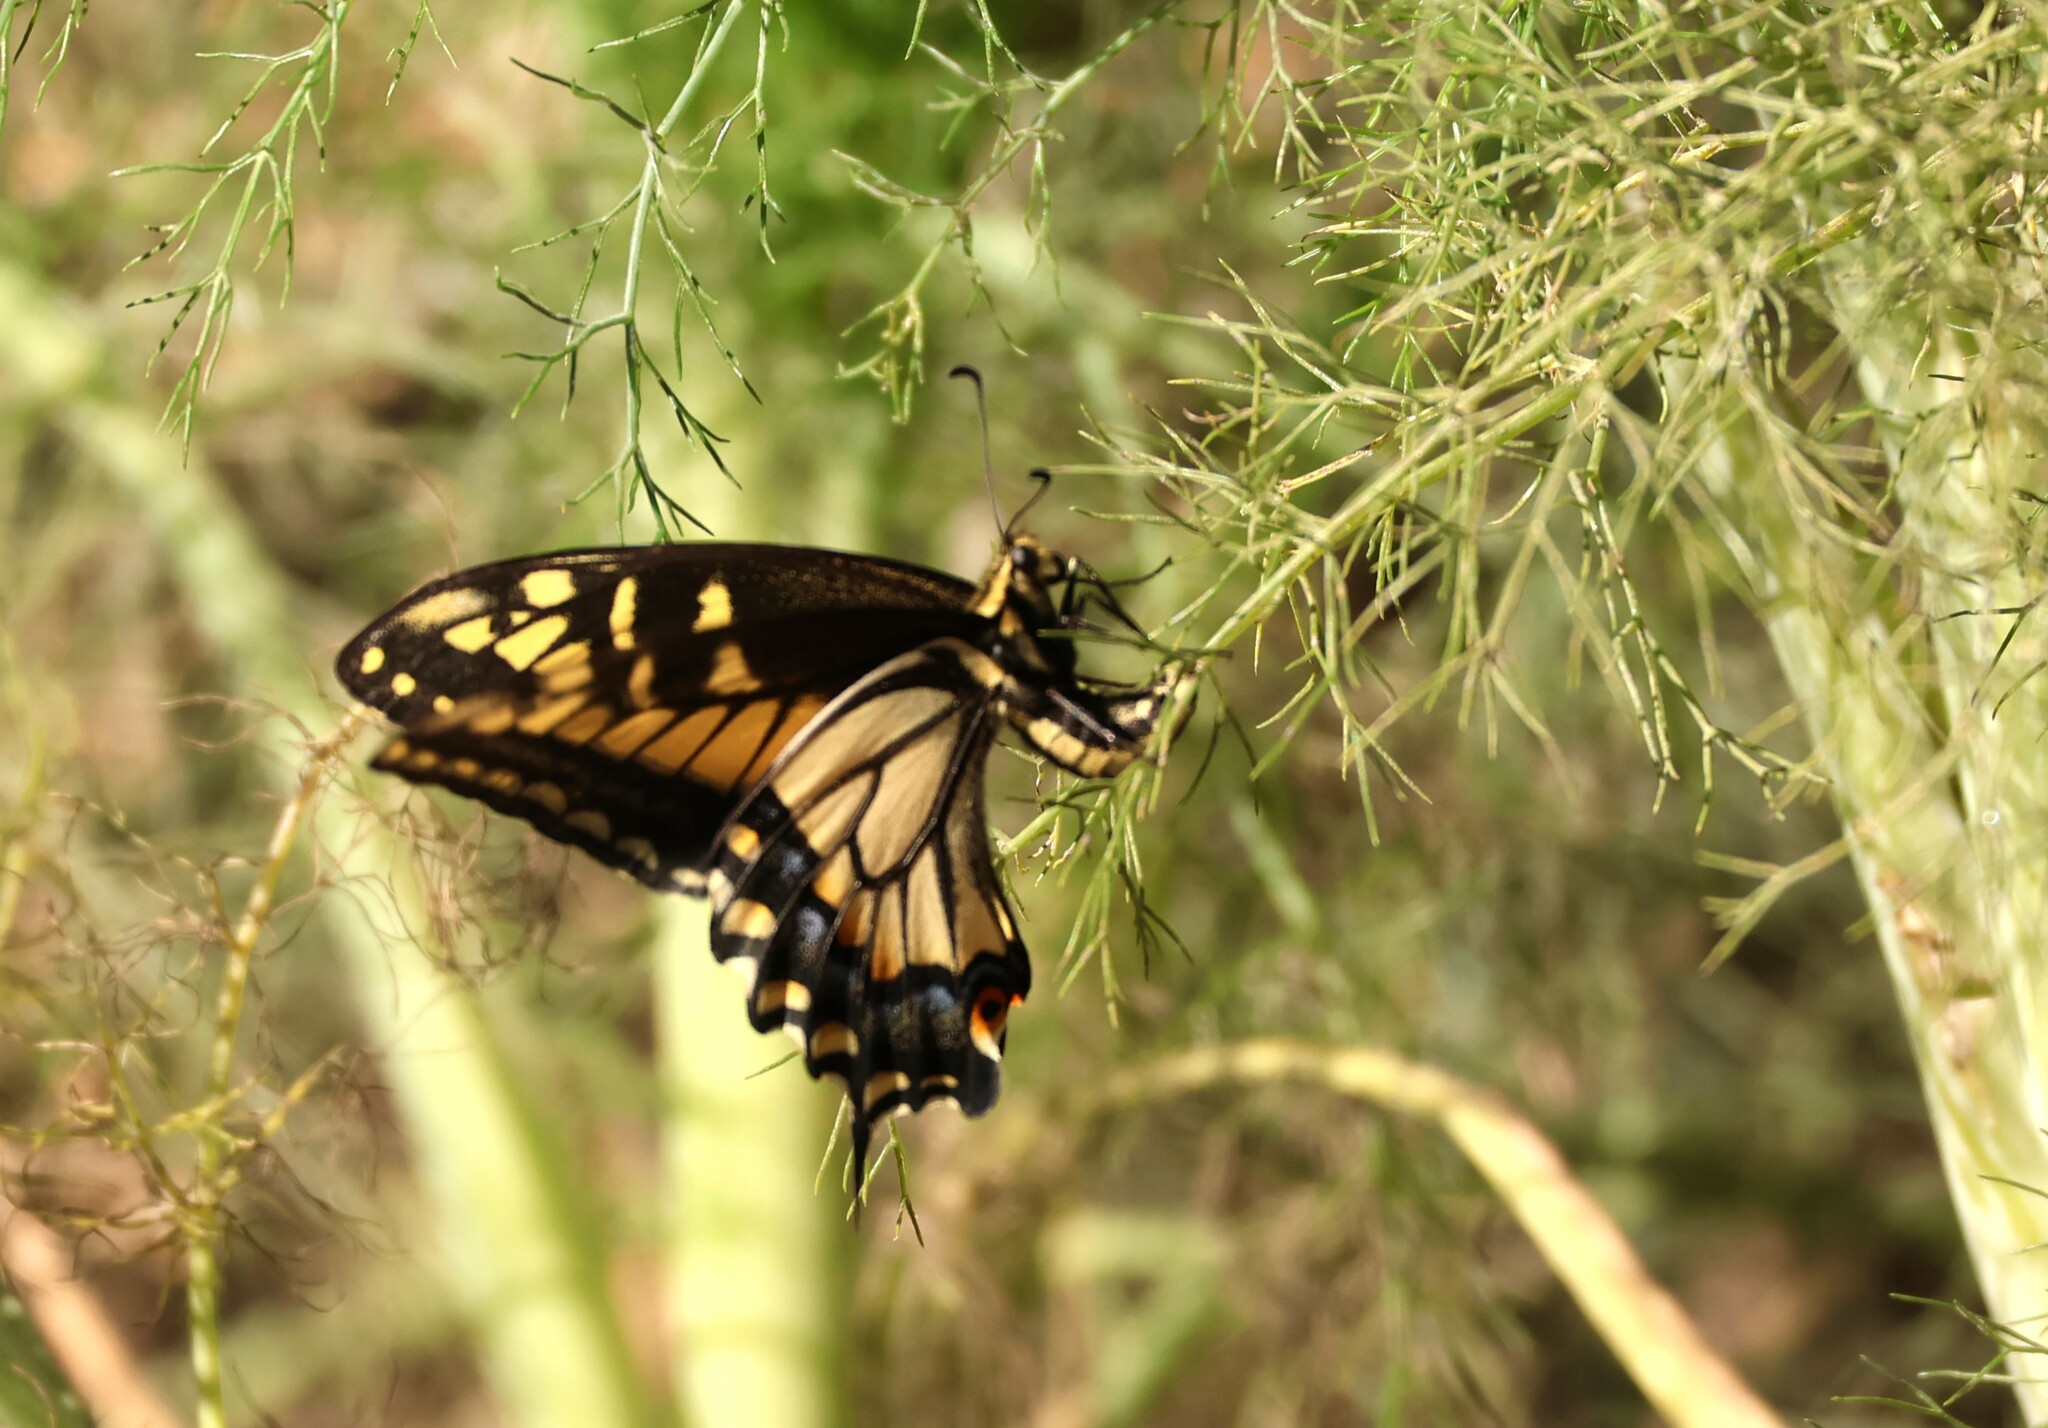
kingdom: Animalia
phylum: Arthropoda
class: Insecta
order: Lepidoptera
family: Papilionidae
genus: Papilio
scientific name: Papilio zelicaon
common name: Anise swallowtail
